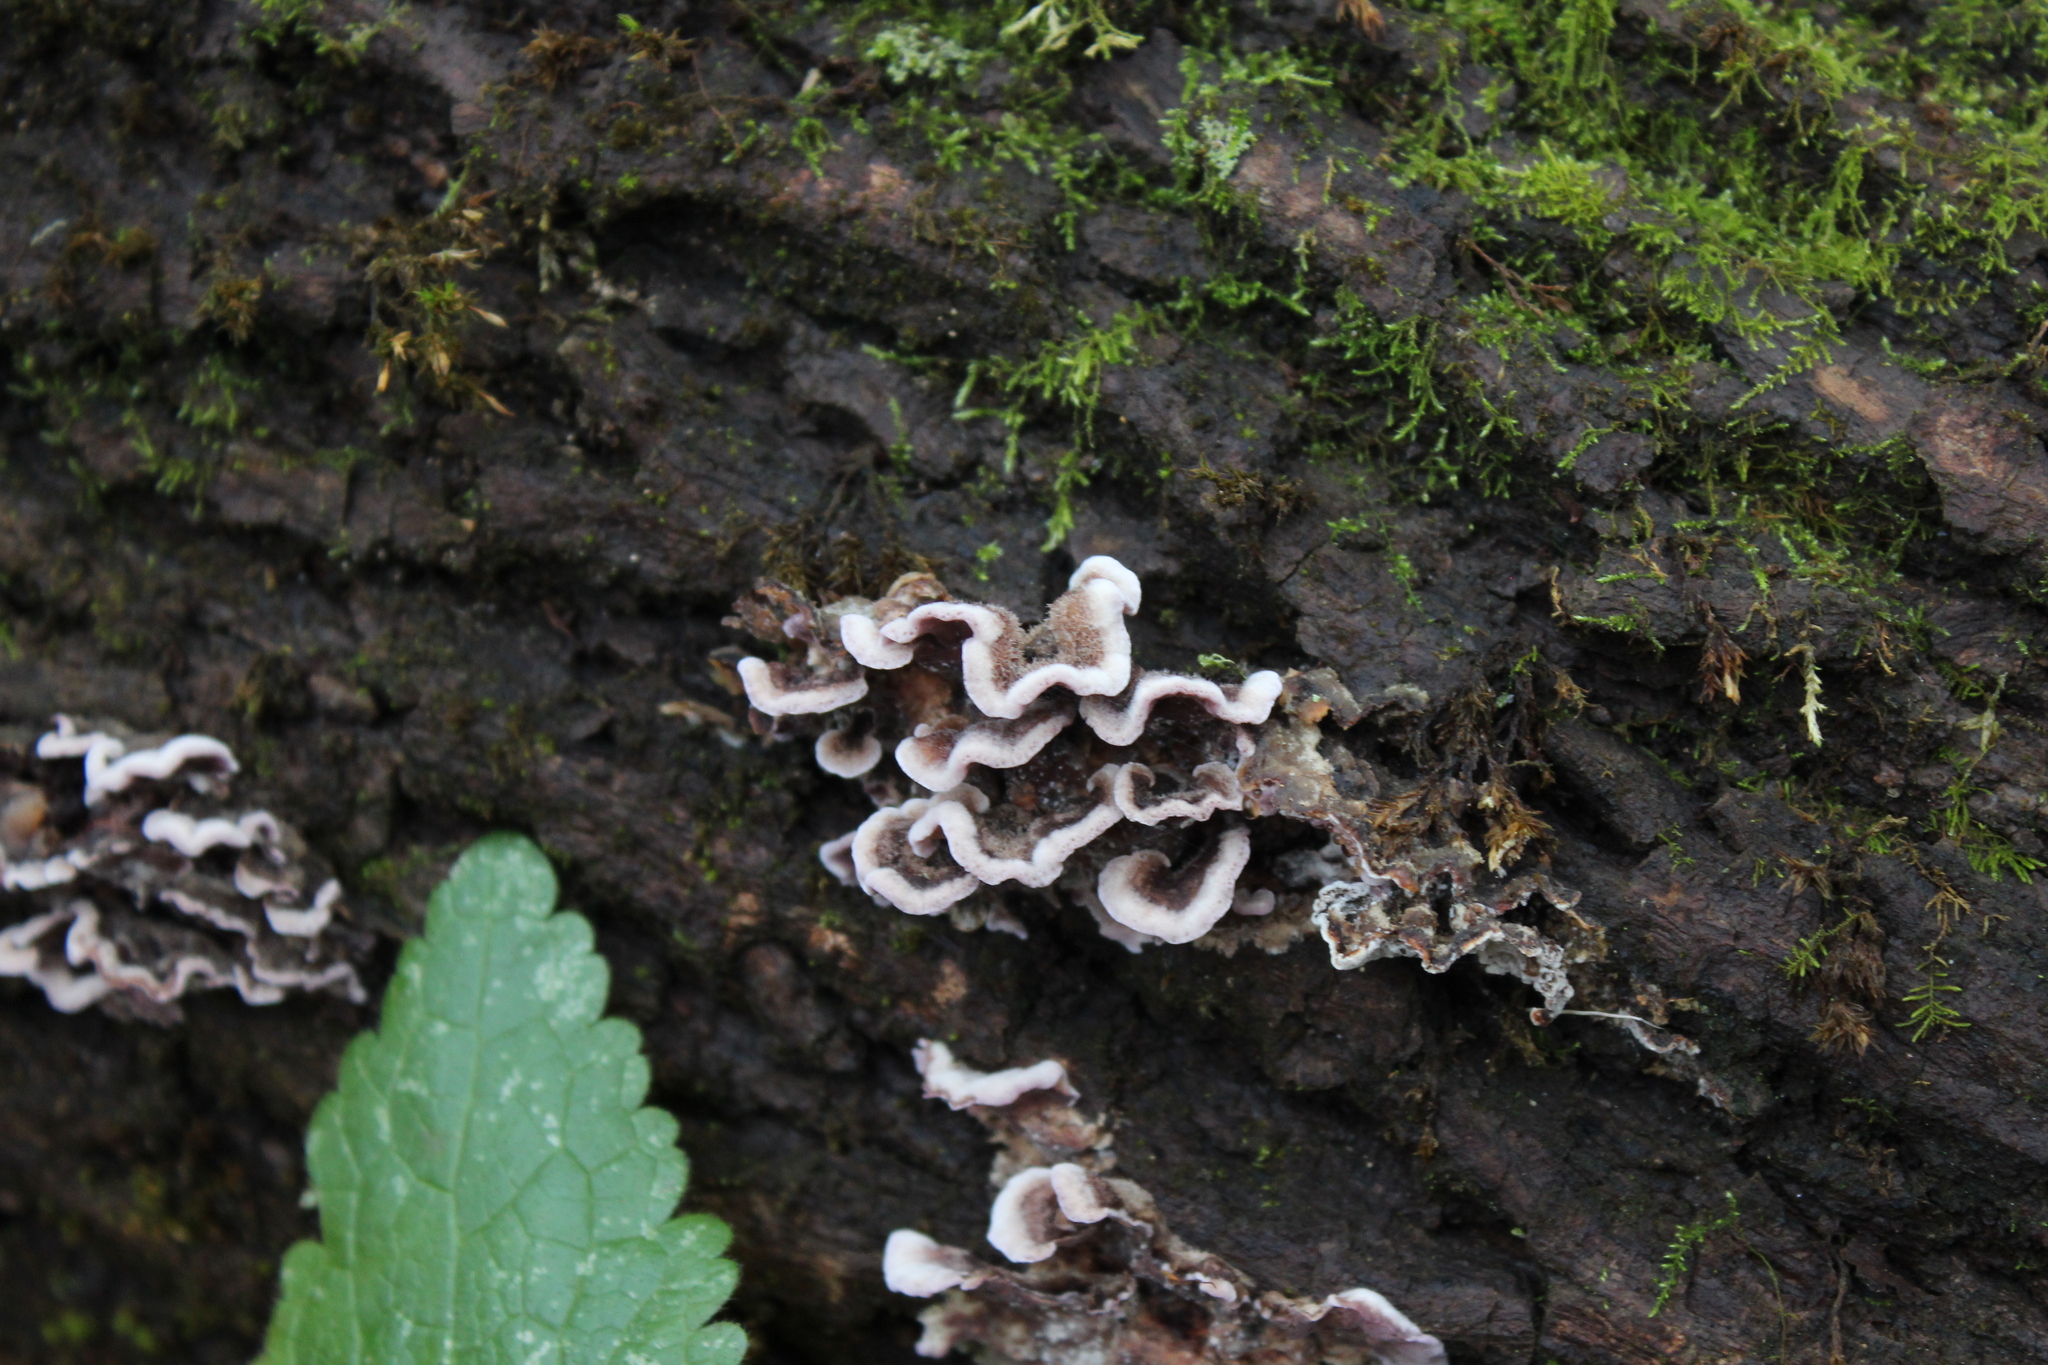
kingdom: Fungi
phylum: Basidiomycota
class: Agaricomycetes
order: Agaricales
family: Cyphellaceae
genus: Chondrostereum
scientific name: Chondrostereum purpureum
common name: Silver leaf disease
